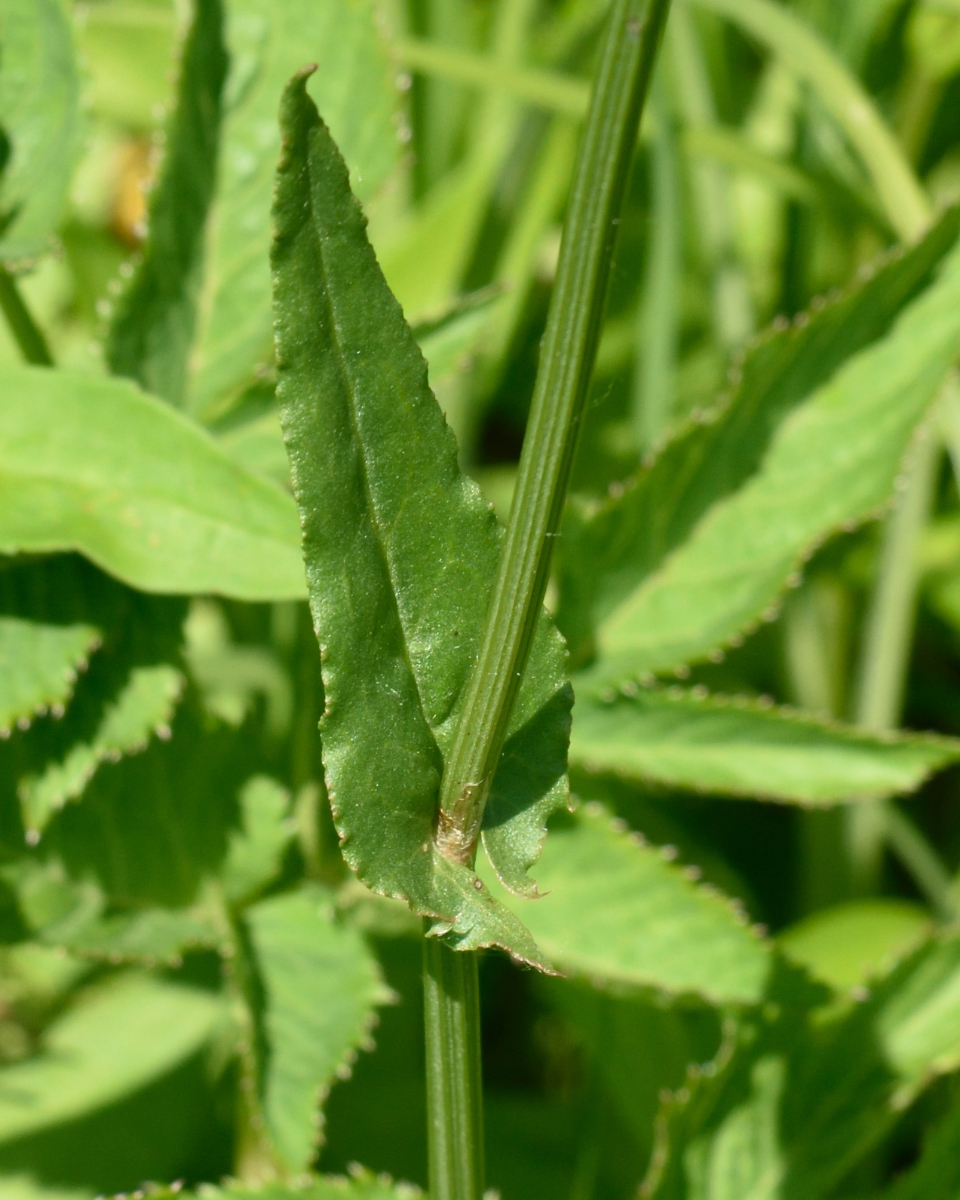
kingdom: Plantae
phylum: Tracheophyta
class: Magnoliopsida
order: Caryophyllales
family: Polygonaceae
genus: Rumex
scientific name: Rumex acetosa
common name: Garden sorrel
